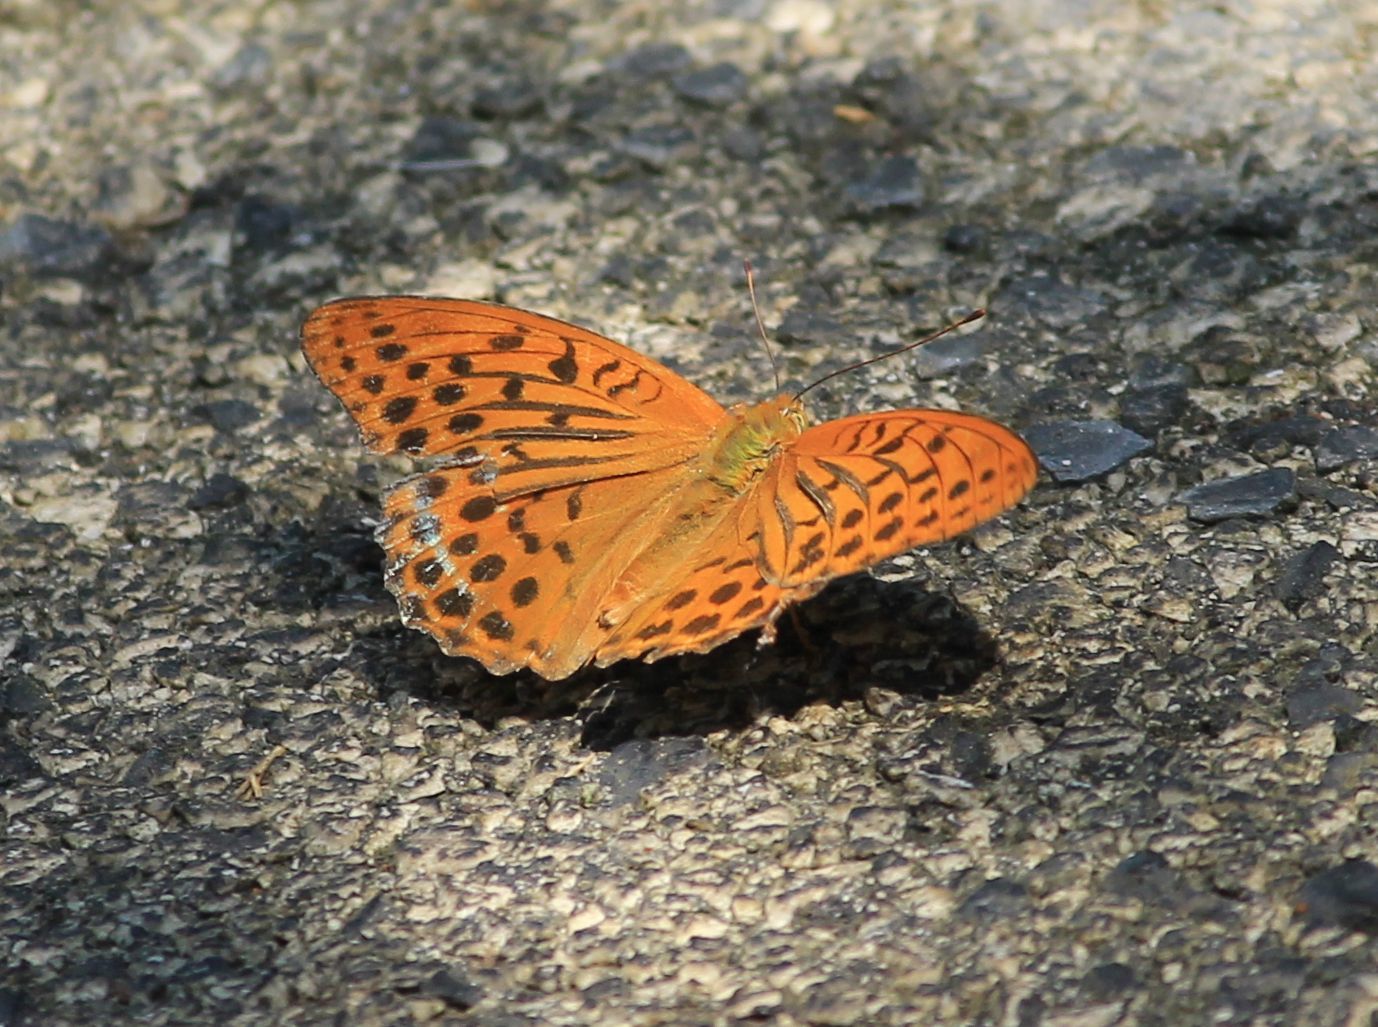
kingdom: Animalia
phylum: Arthropoda
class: Insecta
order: Lepidoptera
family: Nymphalidae
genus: Argynnis
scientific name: Argynnis paphia
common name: Silver-washed fritillary
